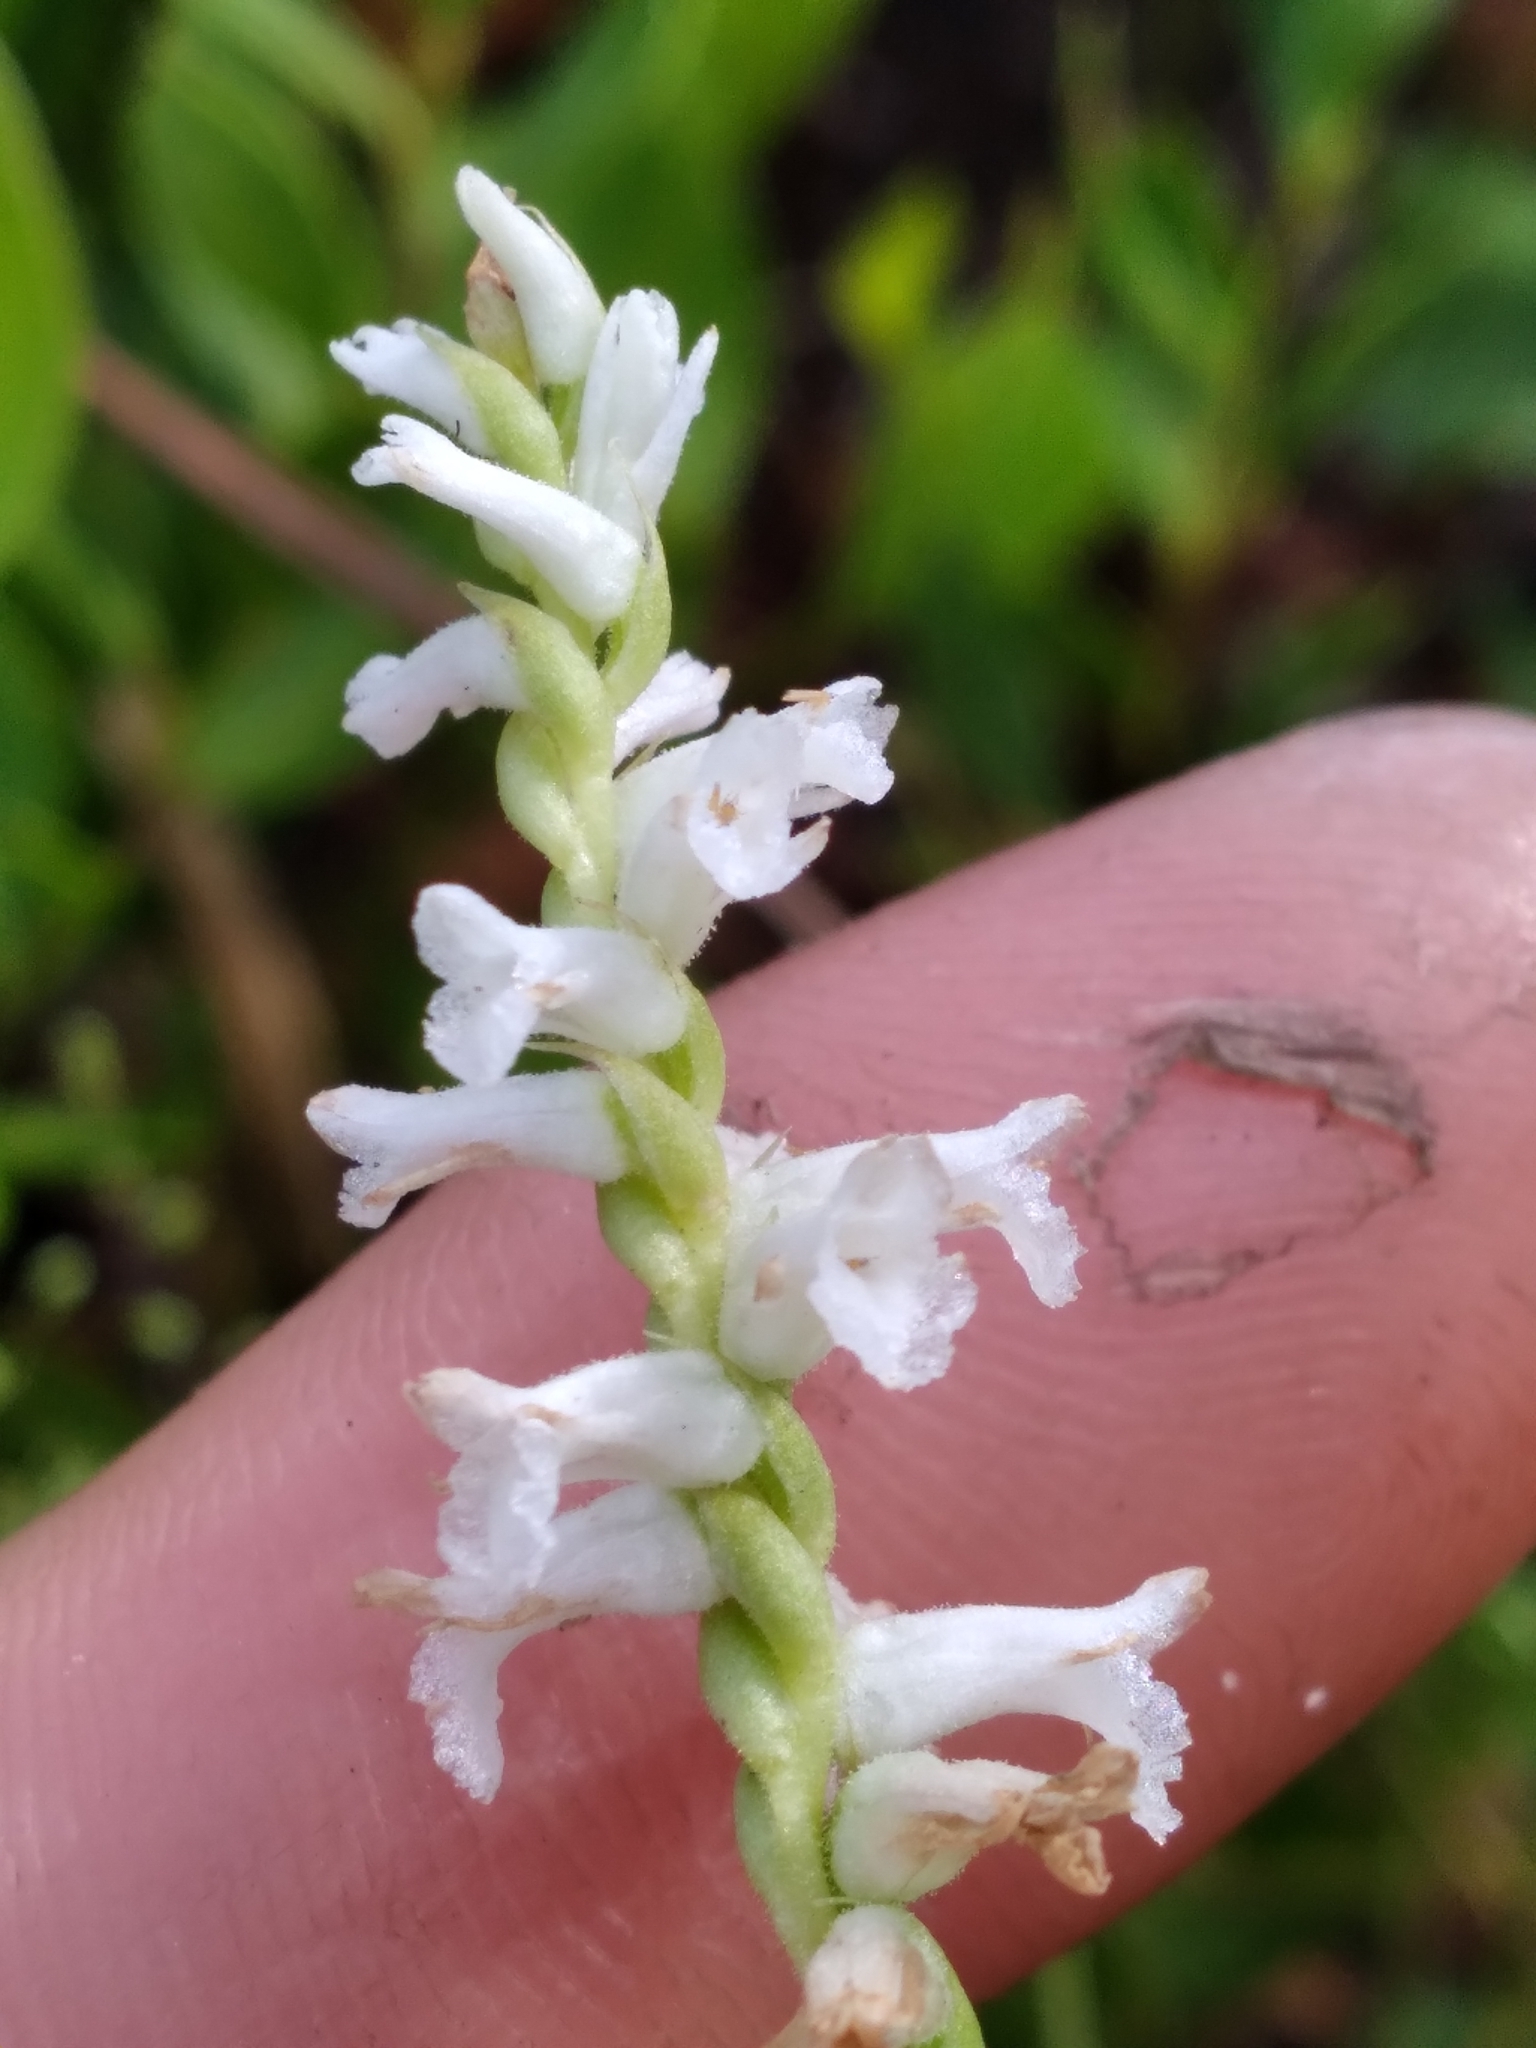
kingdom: Plantae
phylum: Tracheophyta
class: Liliopsida
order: Asparagales
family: Orchidaceae
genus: Spiranthes
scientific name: Spiranthes praecox
